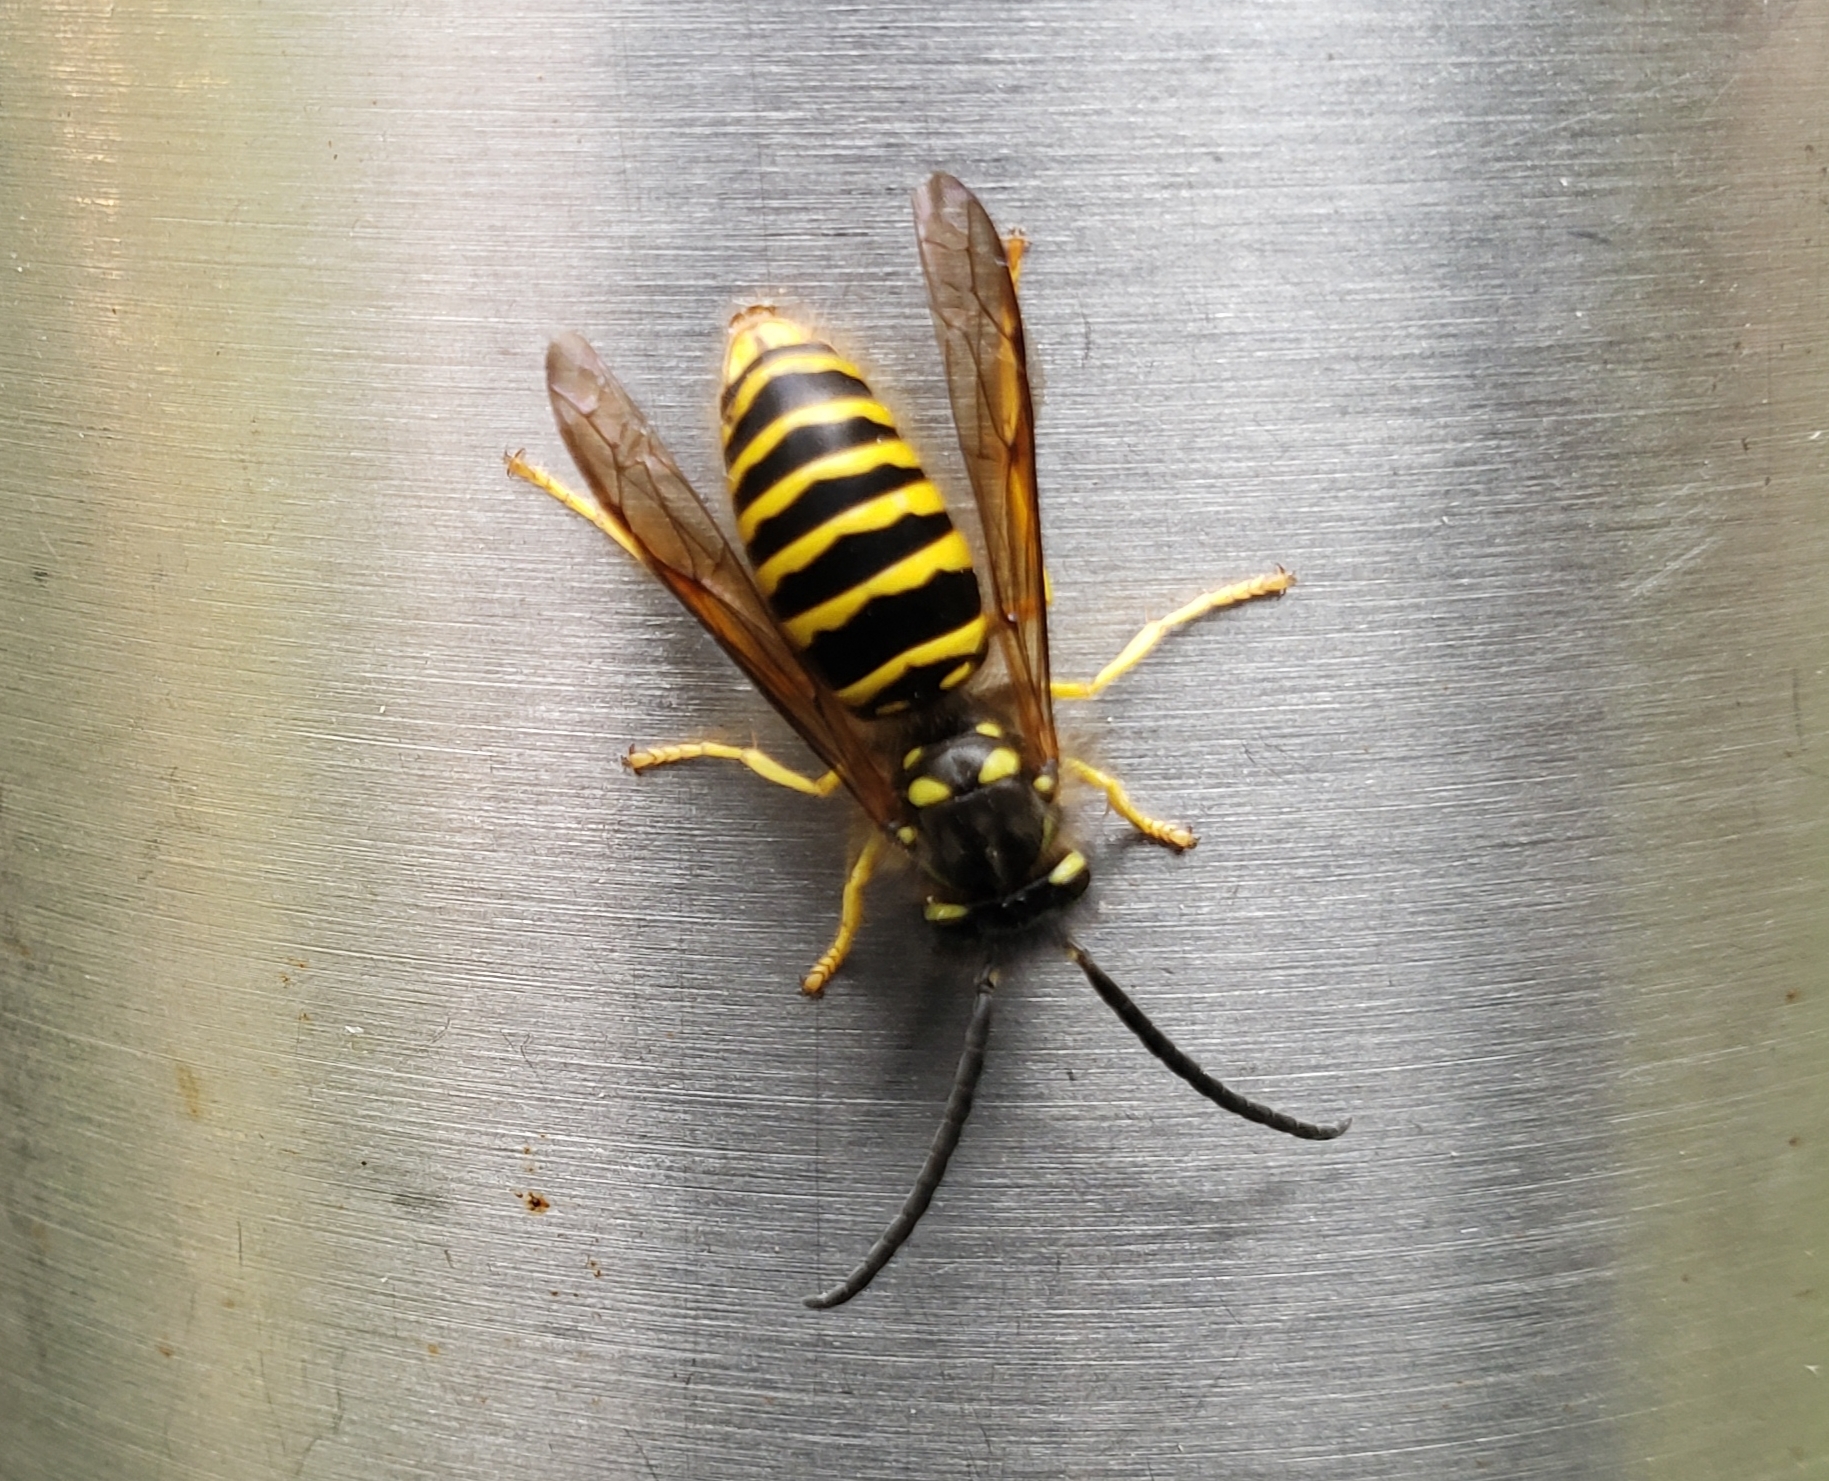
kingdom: Animalia
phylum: Arthropoda
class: Insecta
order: Hymenoptera
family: Vespidae
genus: Vespula
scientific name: Vespula maculifrons
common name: Eastern yellowjacket
